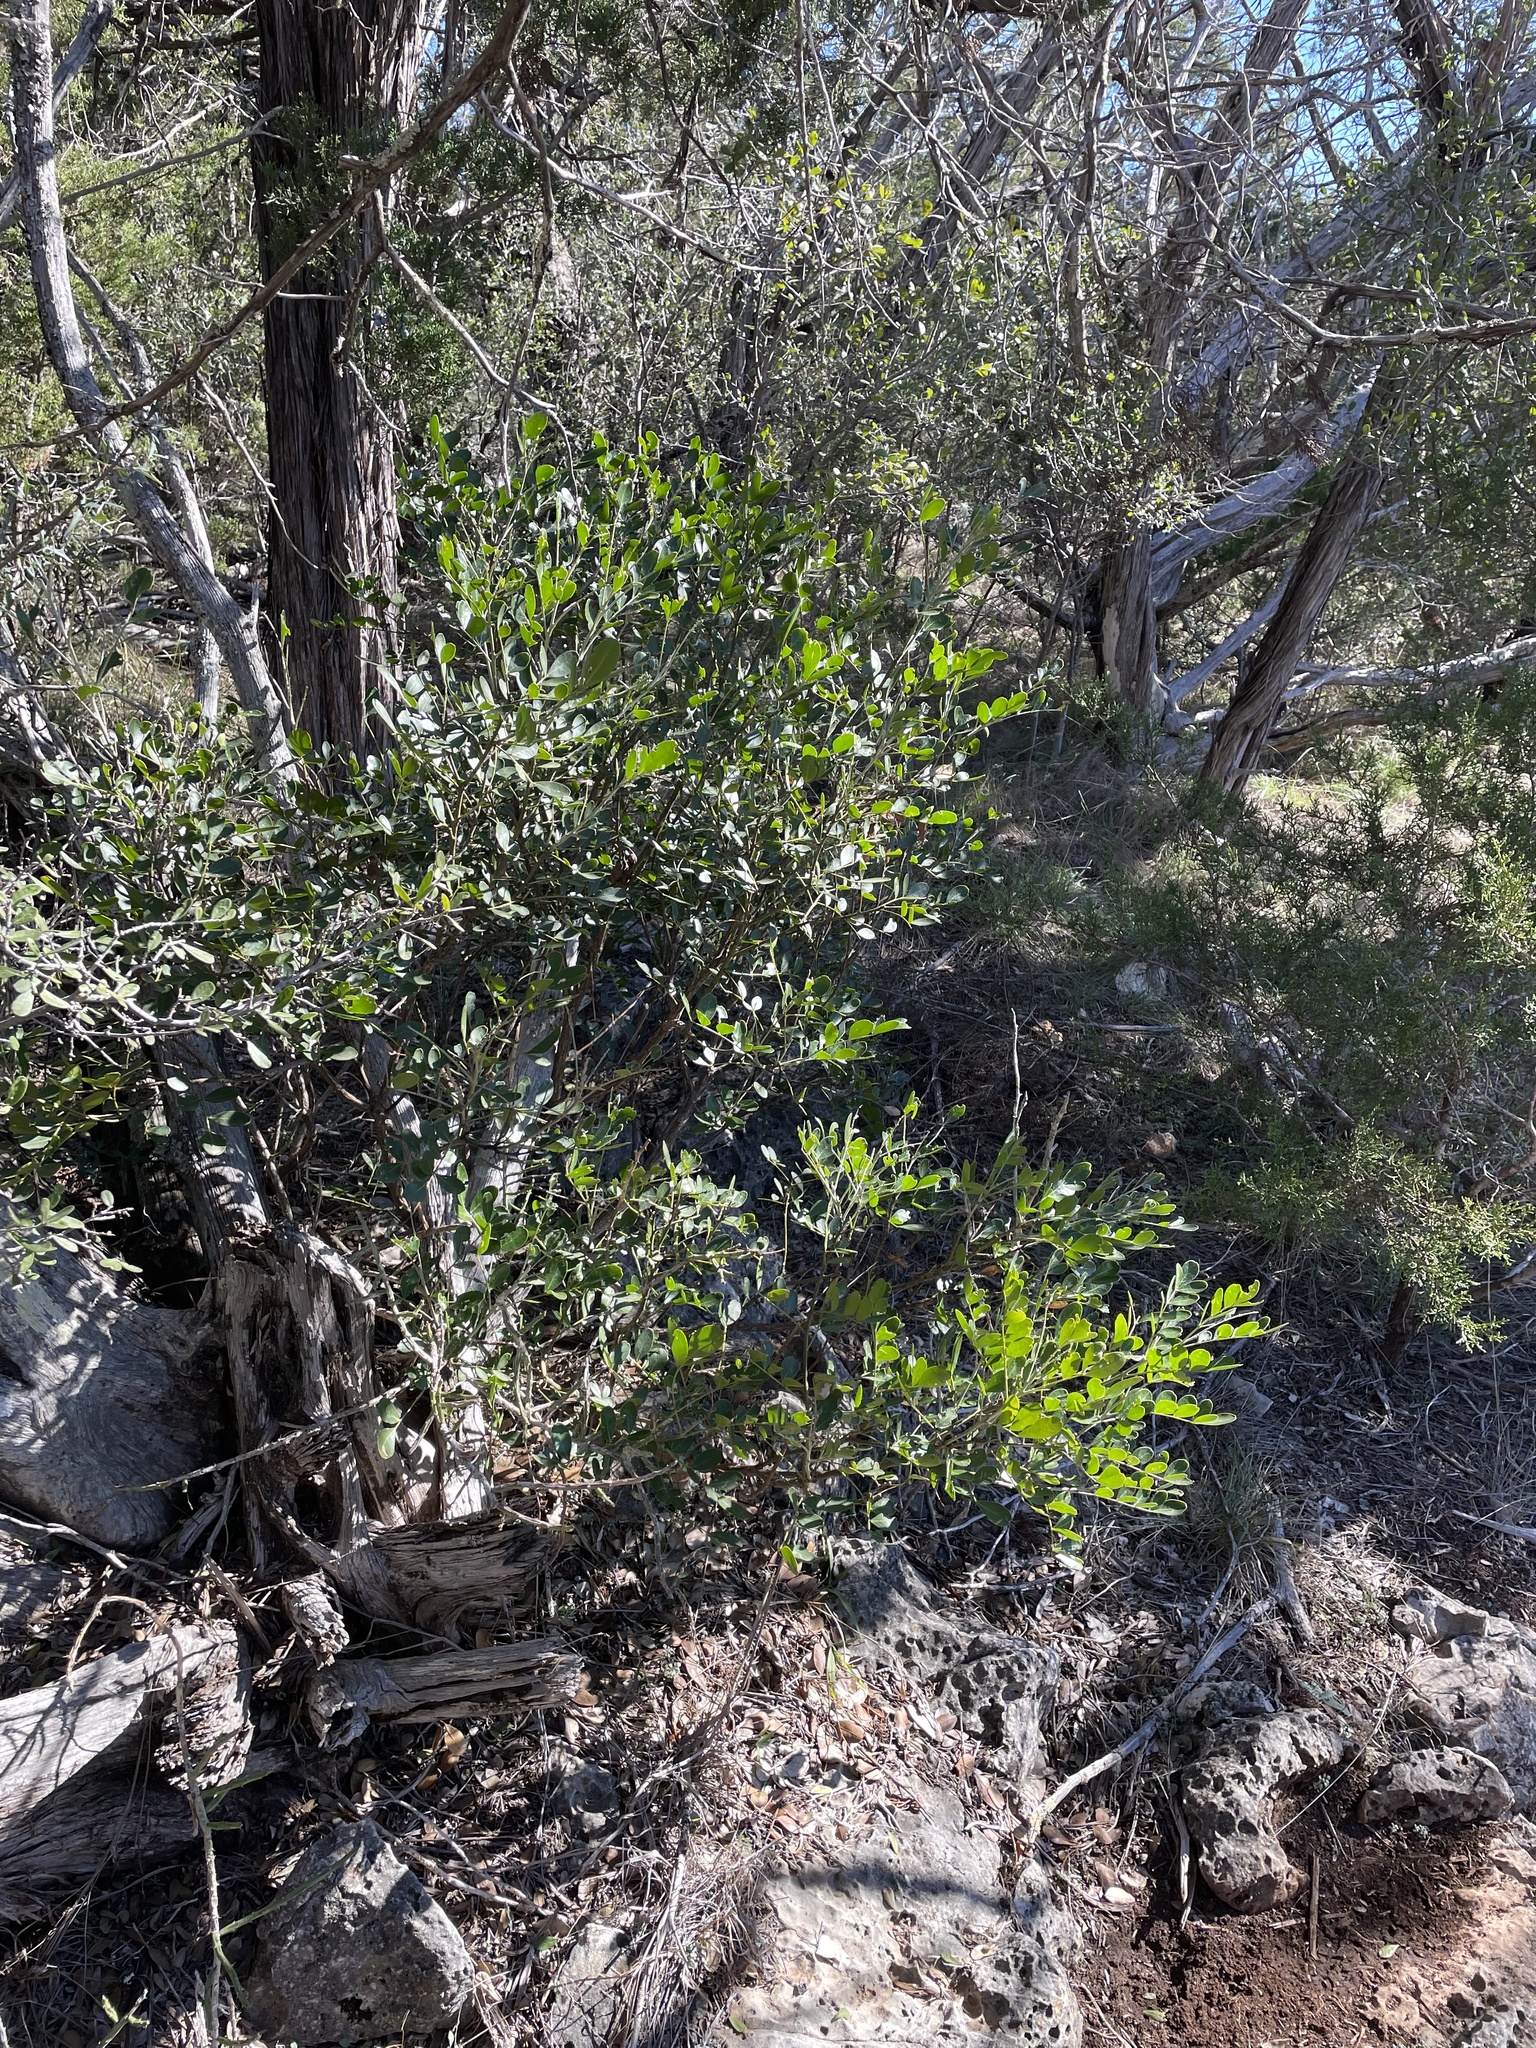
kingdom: Plantae
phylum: Tracheophyta
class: Magnoliopsida
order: Fabales
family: Fabaceae
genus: Dermatophyllum
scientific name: Dermatophyllum secundiflorum
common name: Texas-mountain-laurel
